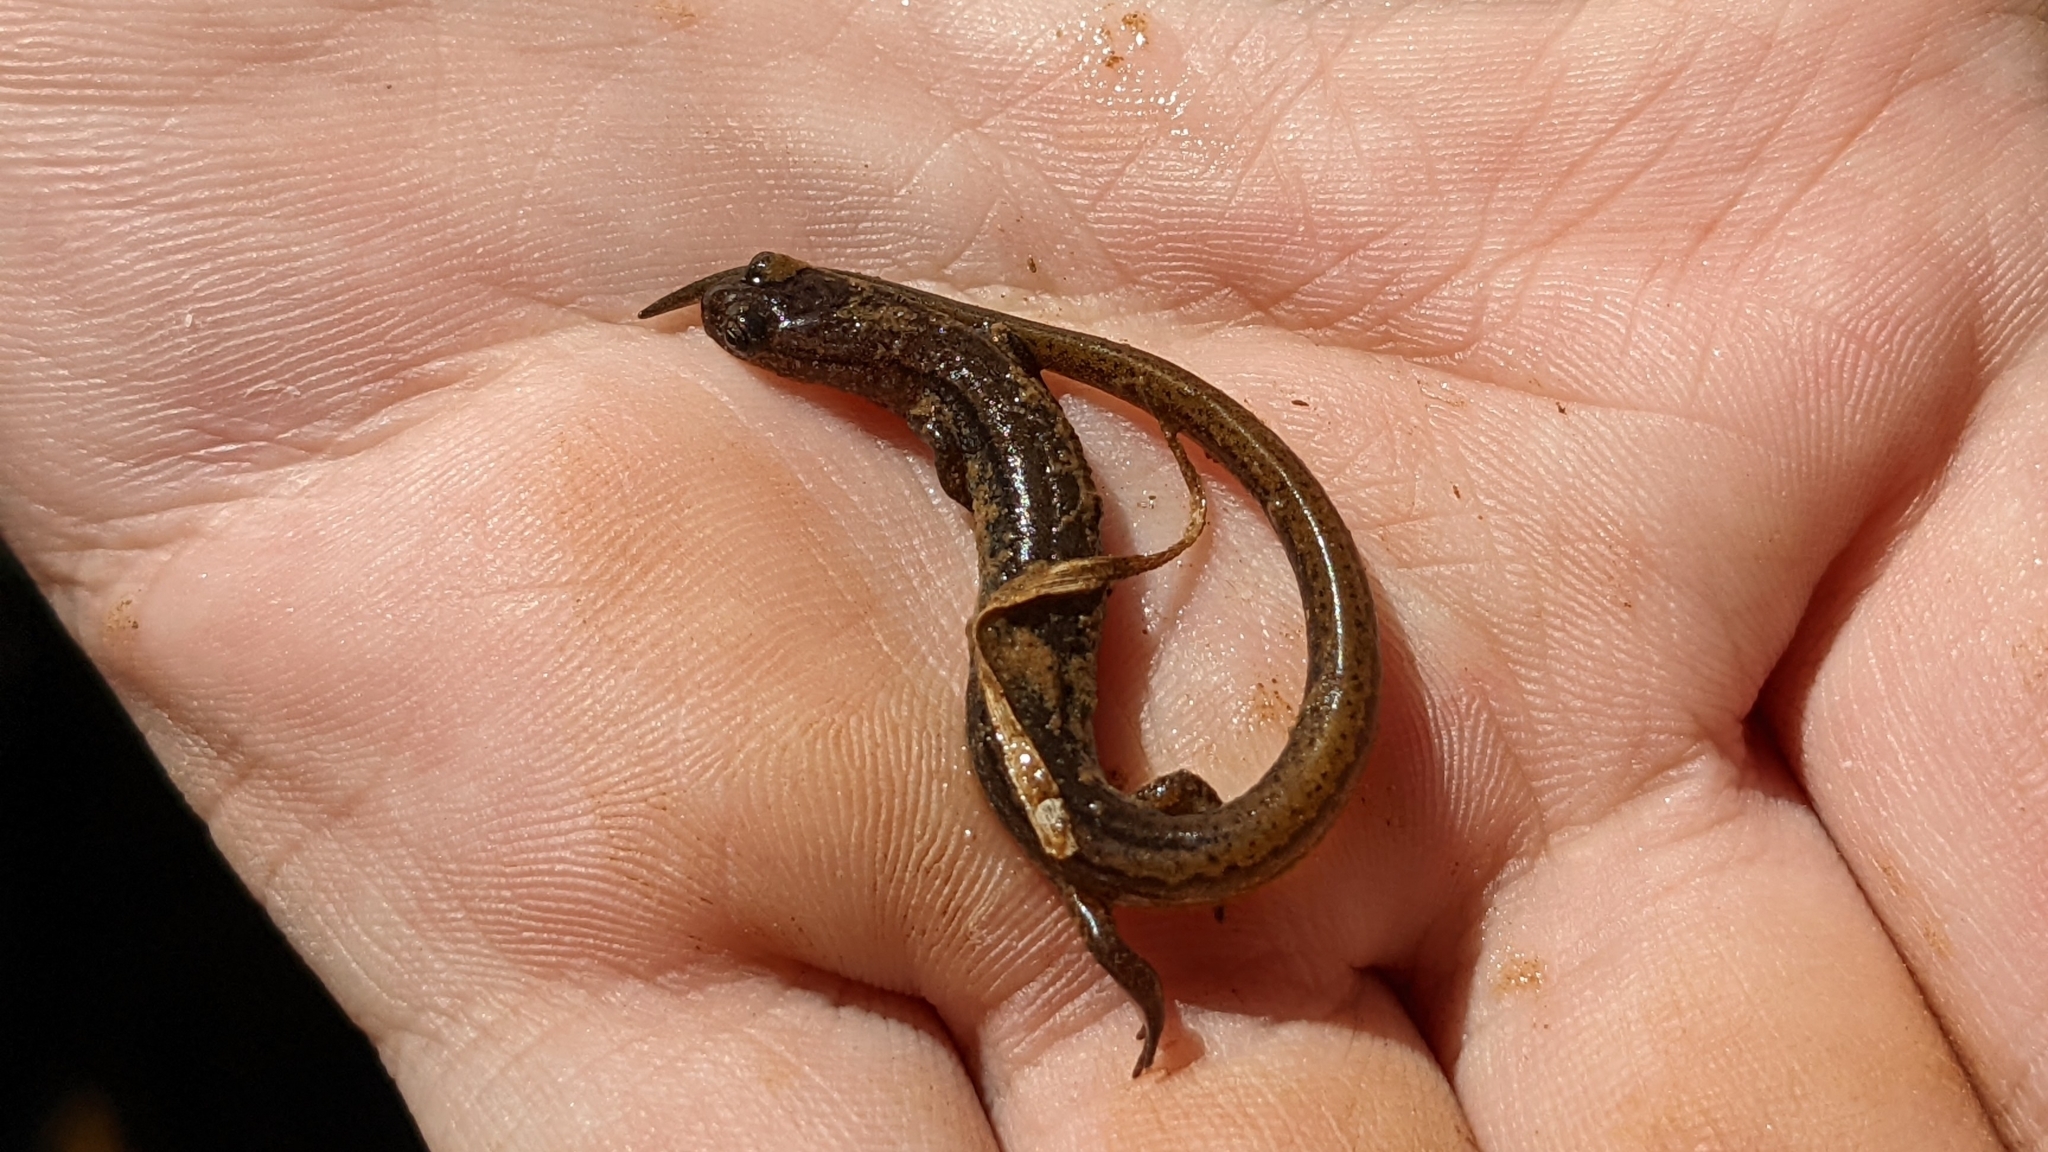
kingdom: Animalia
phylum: Chordata
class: Amphibia
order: Caudata
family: Plethodontidae
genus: Eurycea
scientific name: Eurycea paludicola
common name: Western dwarf salamander
